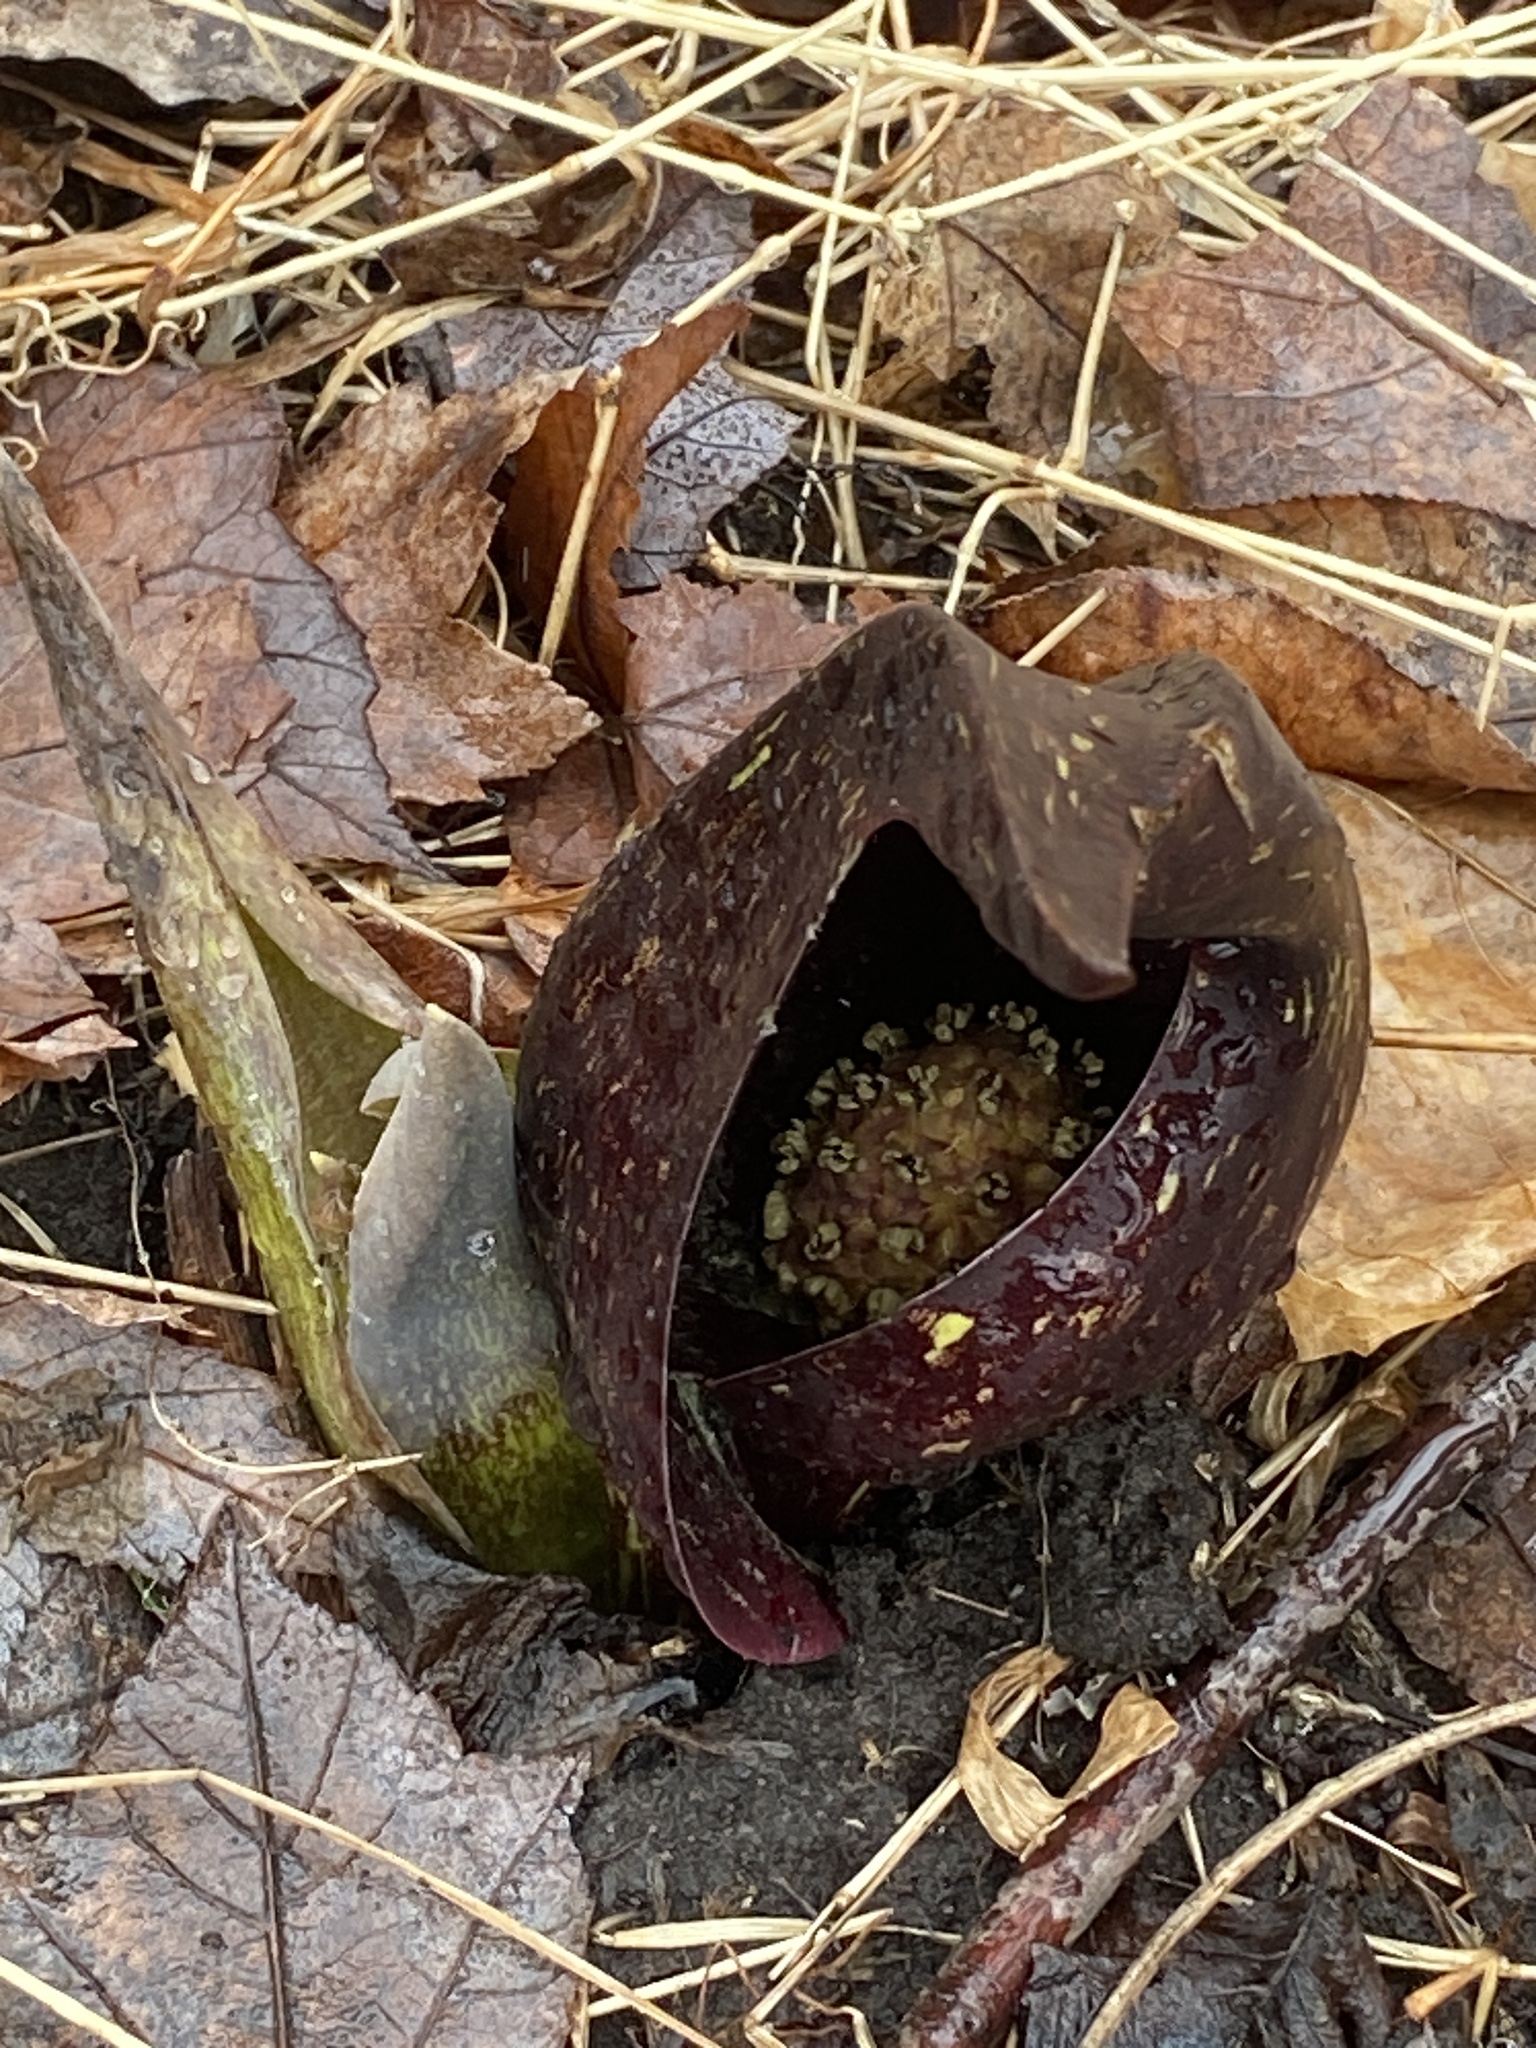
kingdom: Plantae
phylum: Tracheophyta
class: Liliopsida
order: Alismatales
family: Araceae
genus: Symplocarpus
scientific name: Symplocarpus foetidus
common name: Eastern skunk cabbage
